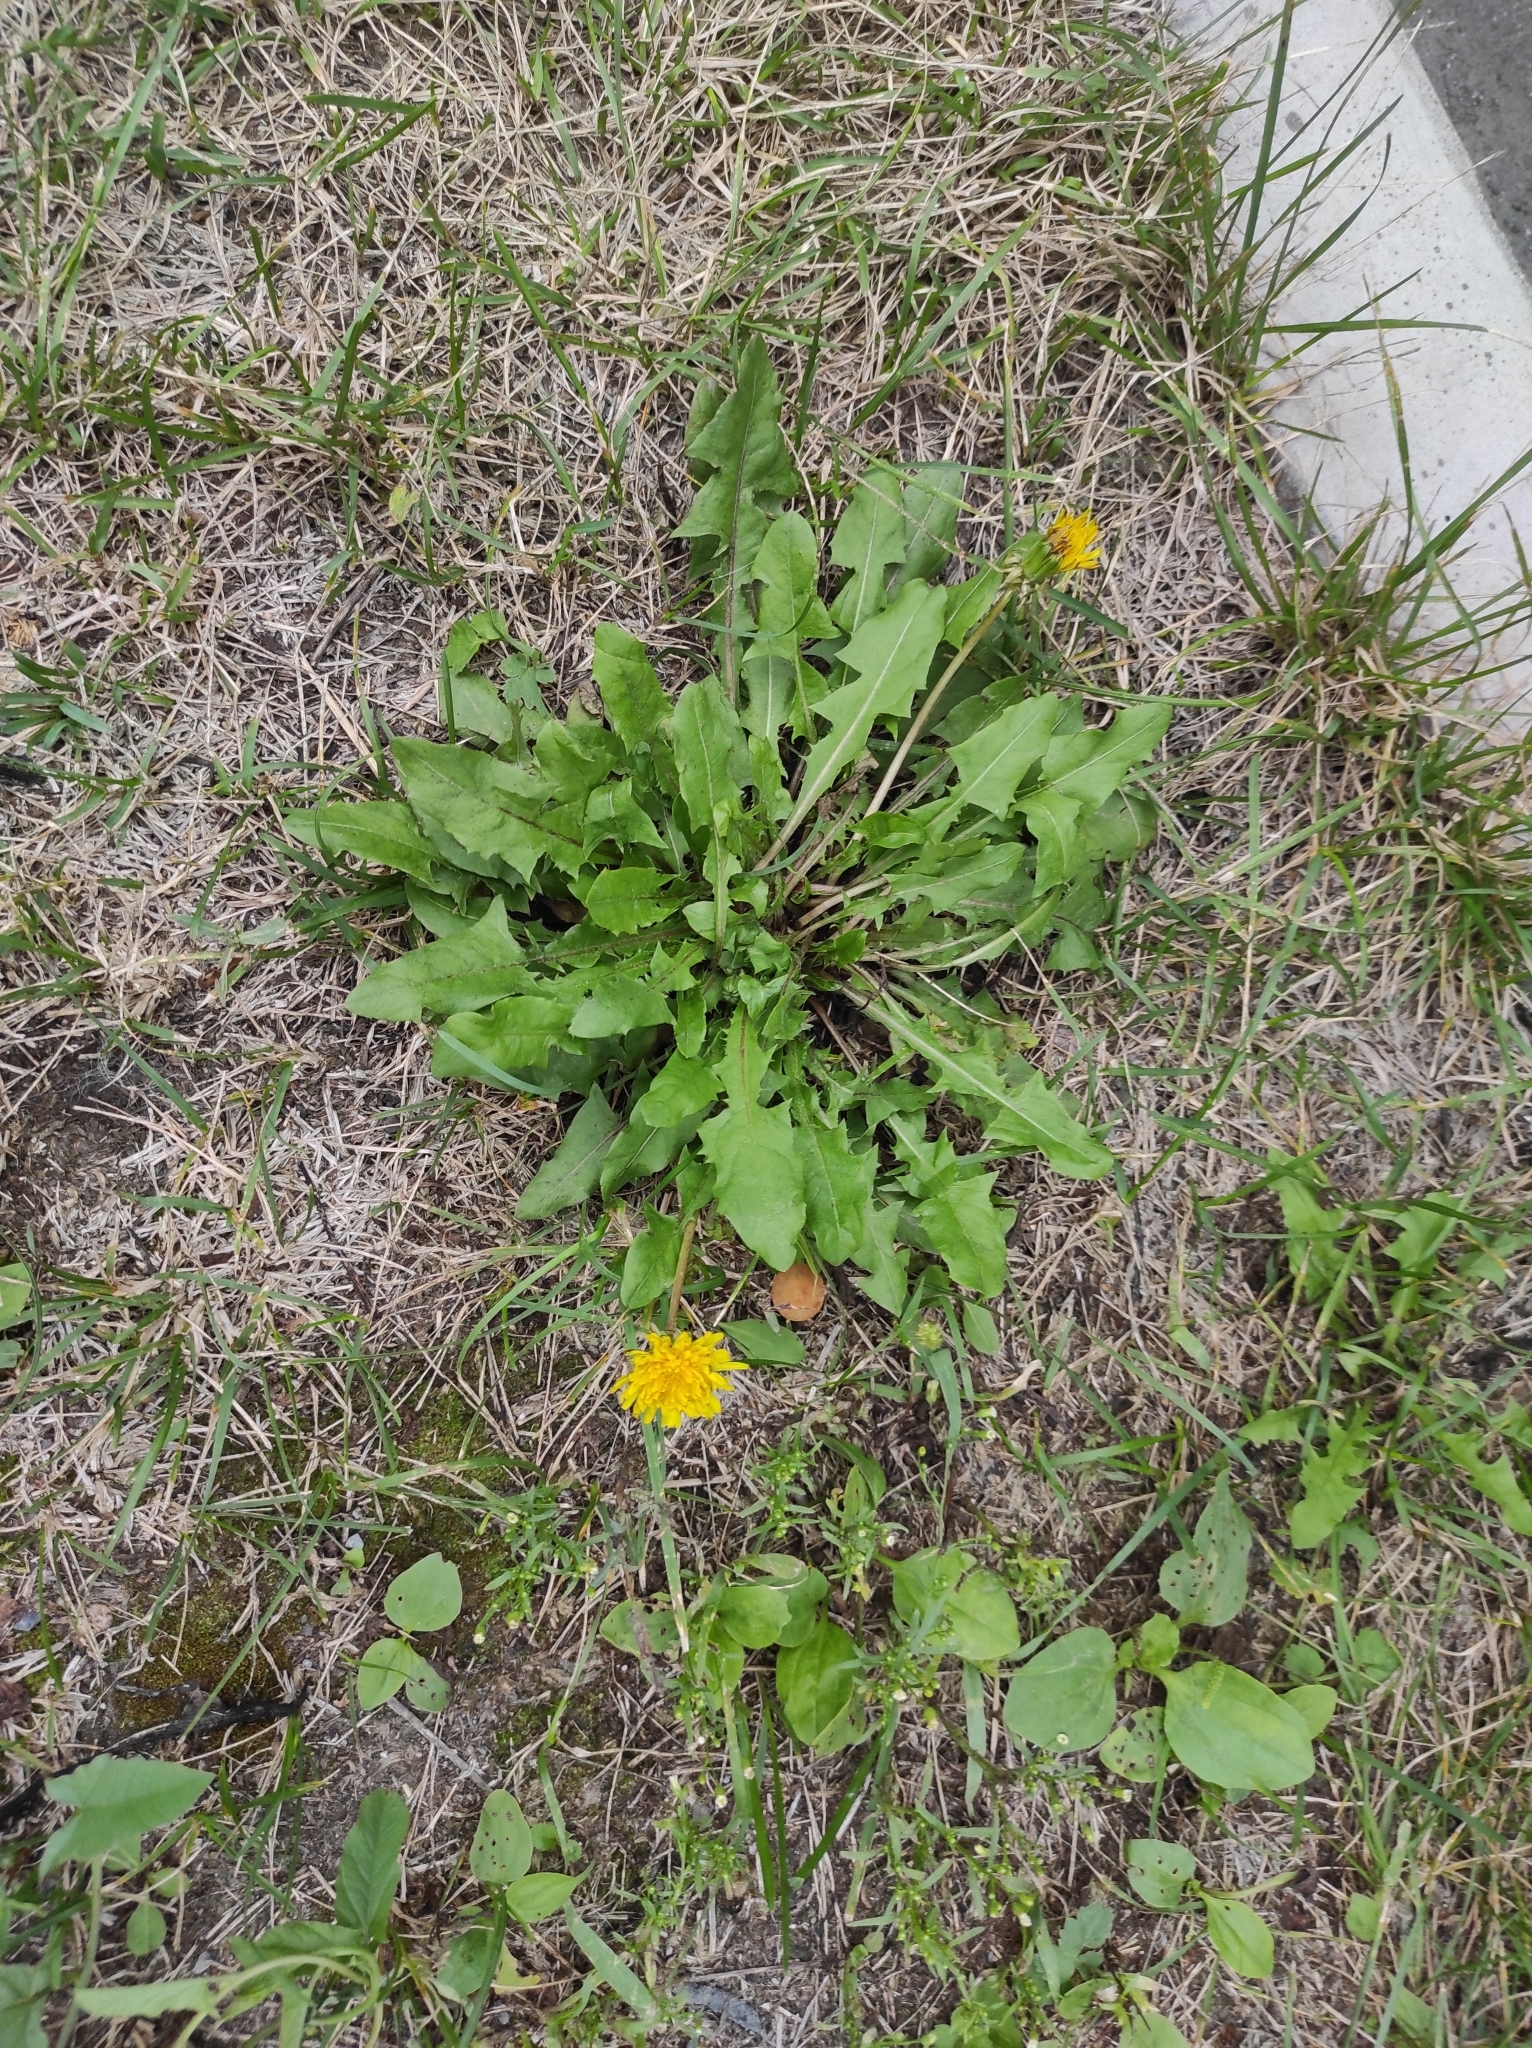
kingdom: Plantae
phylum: Tracheophyta
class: Magnoliopsida
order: Asterales
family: Asteraceae
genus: Taraxacum
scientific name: Taraxacum officinale
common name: Common dandelion
